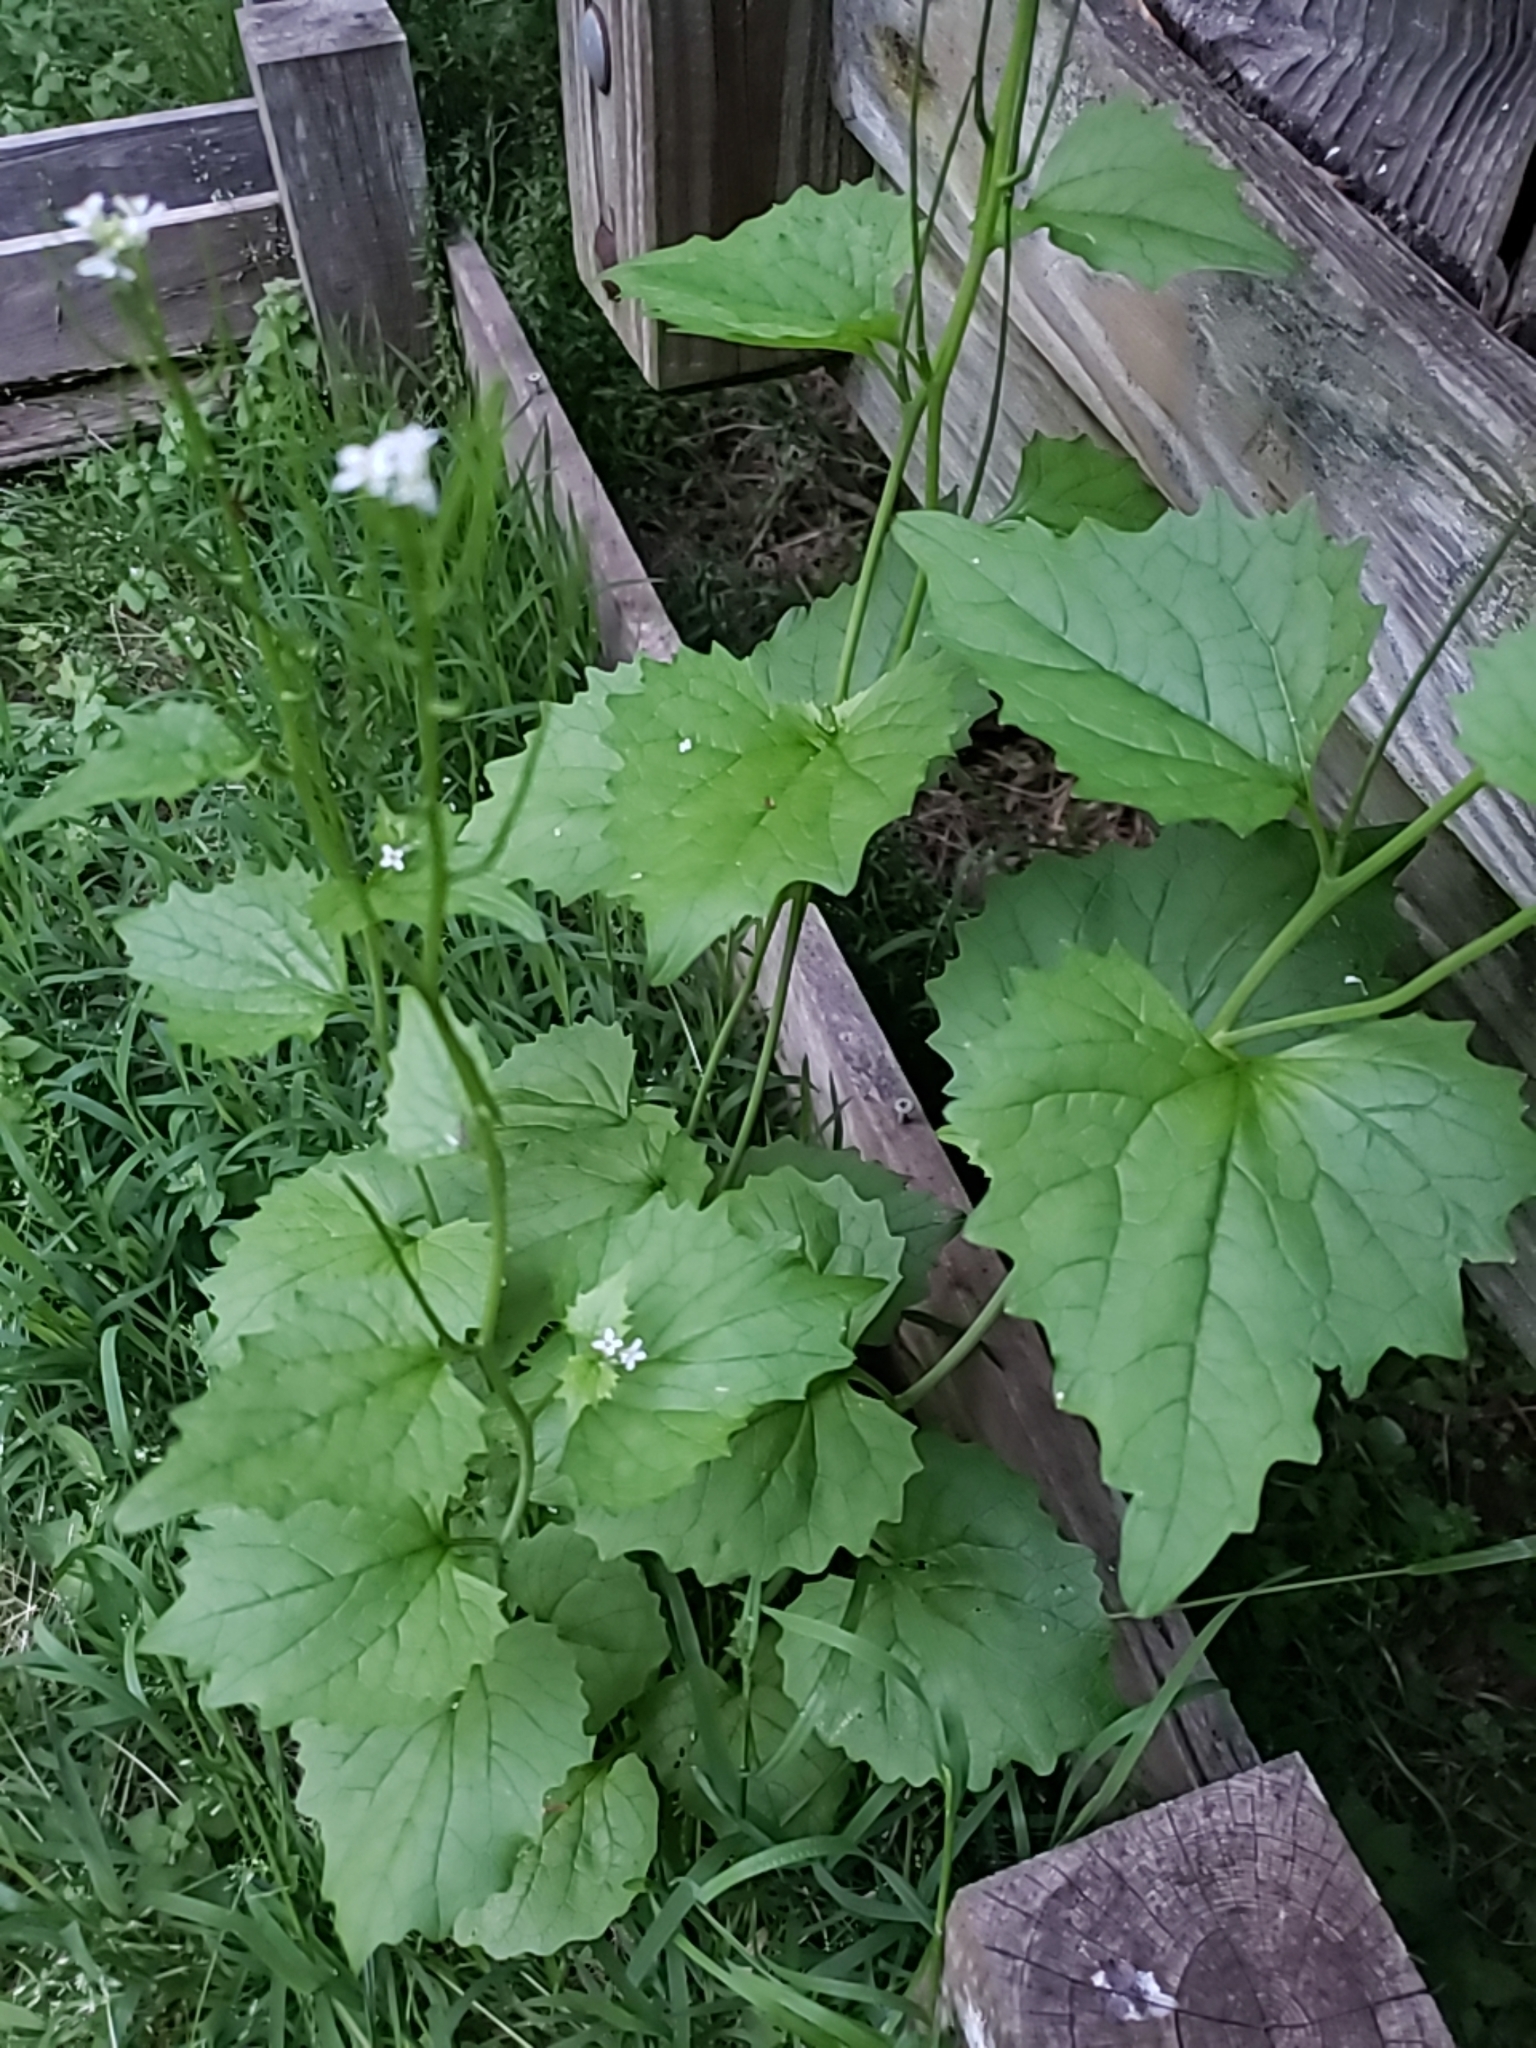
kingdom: Plantae
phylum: Tracheophyta
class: Magnoliopsida
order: Brassicales
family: Brassicaceae
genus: Alliaria
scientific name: Alliaria petiolata
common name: Garlic mustard
